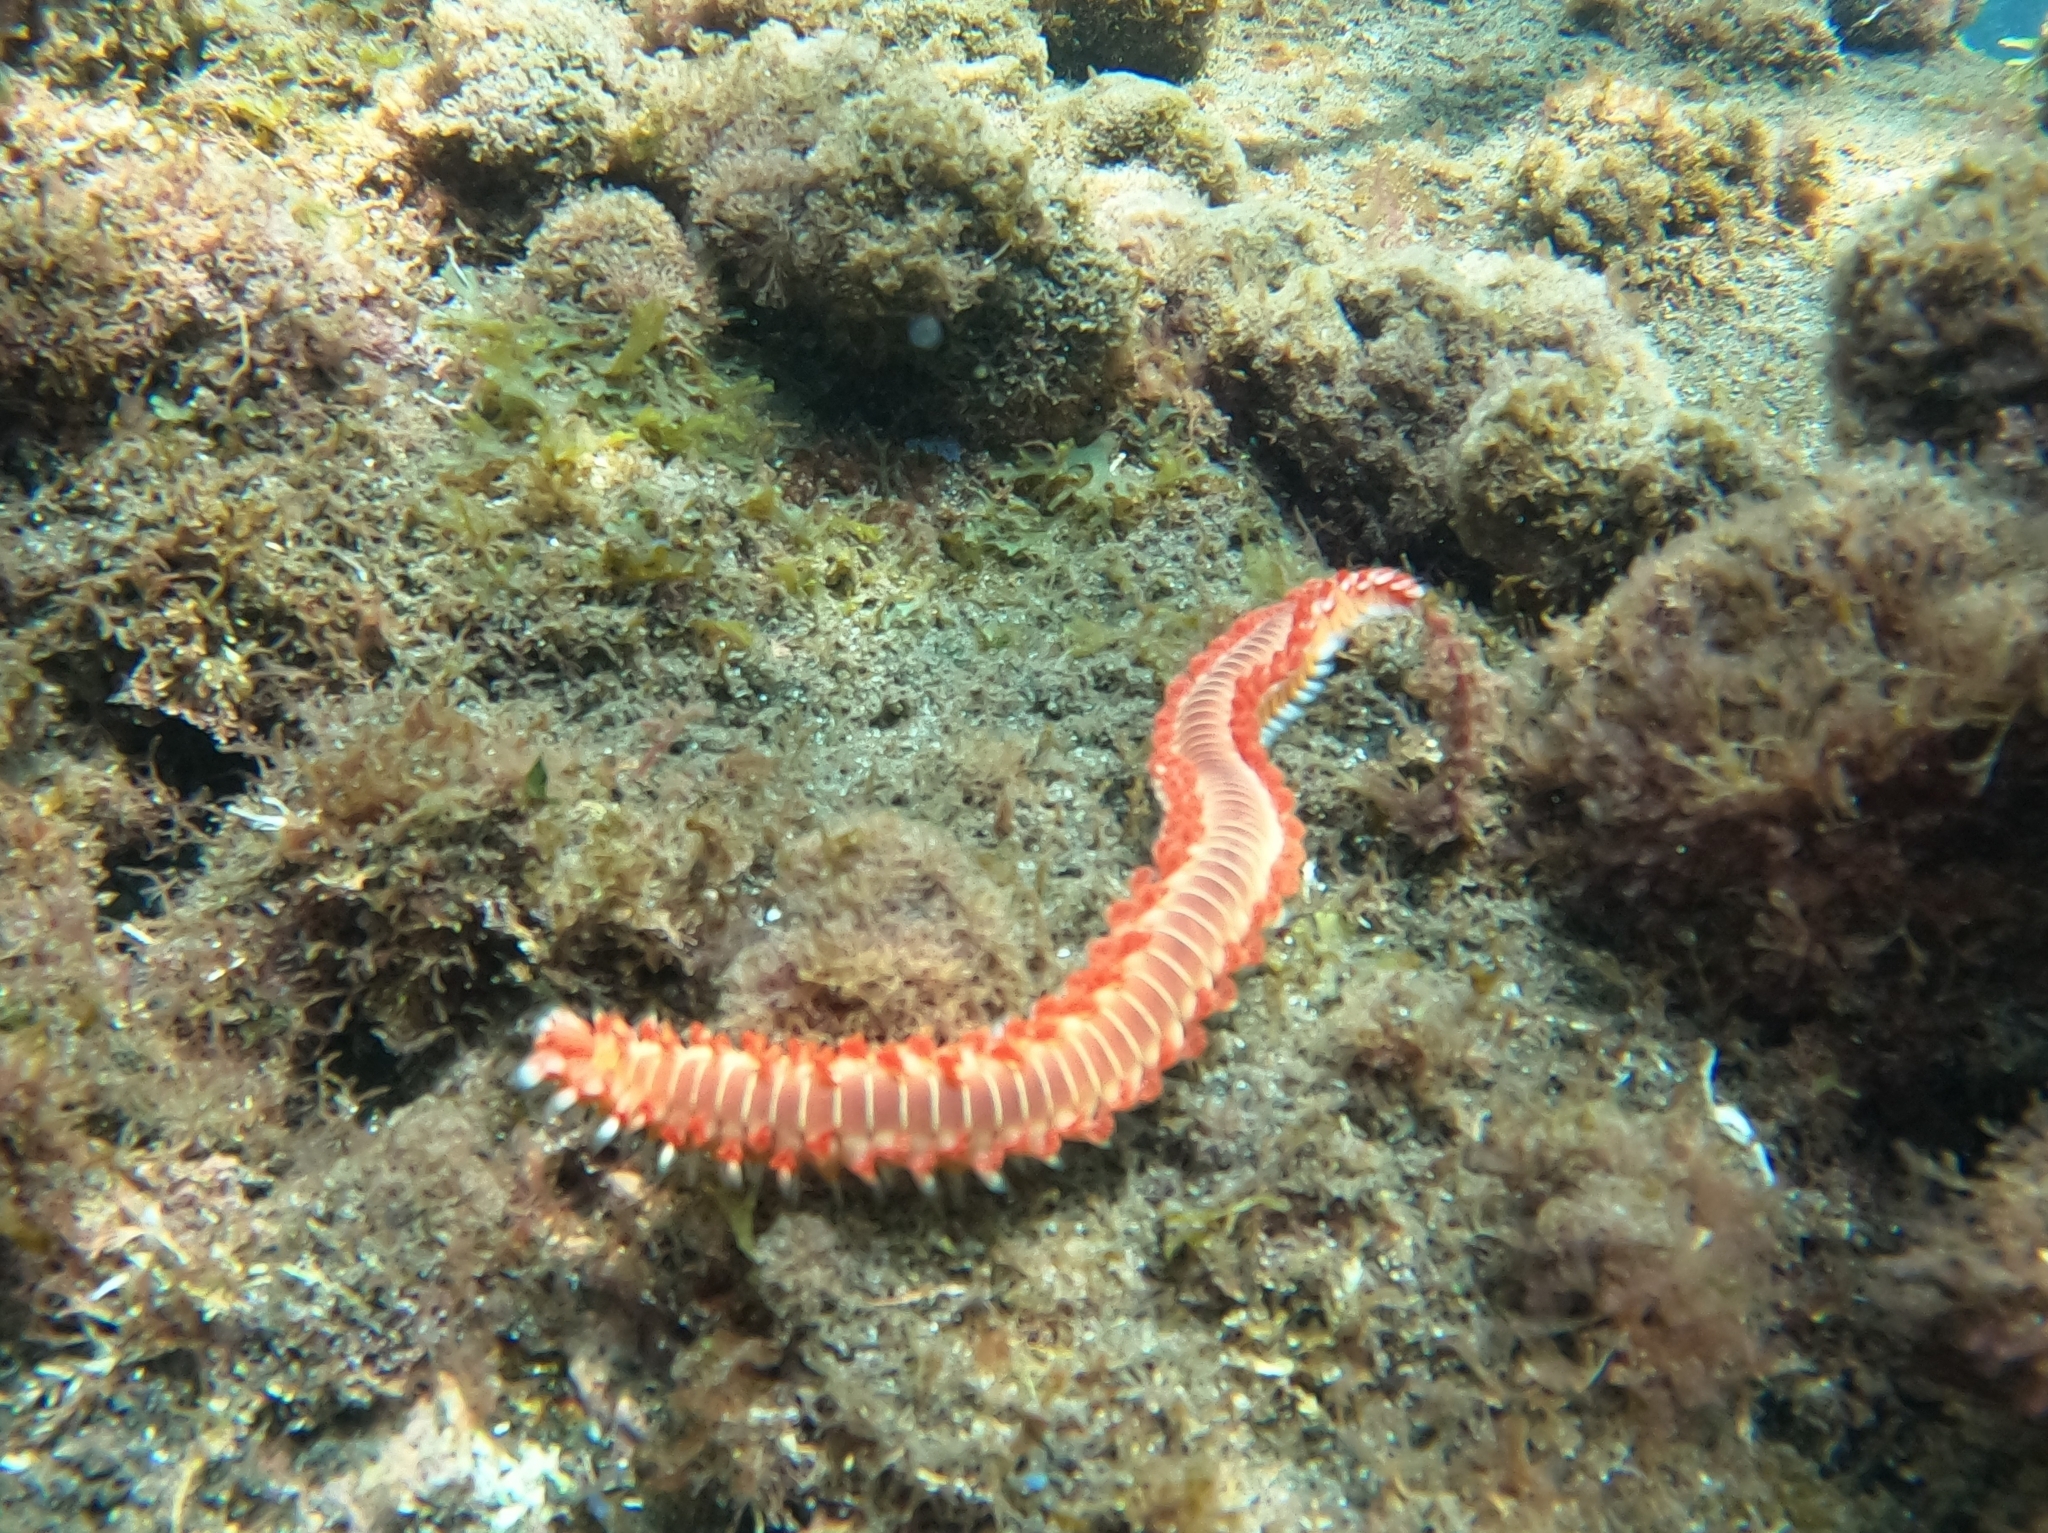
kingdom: Animalia
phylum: Annelida
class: Polychaeta
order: Amphinomida
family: Amphinomidae
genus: Hermodice
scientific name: Hermodice carunculata
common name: Bearded fireworm
